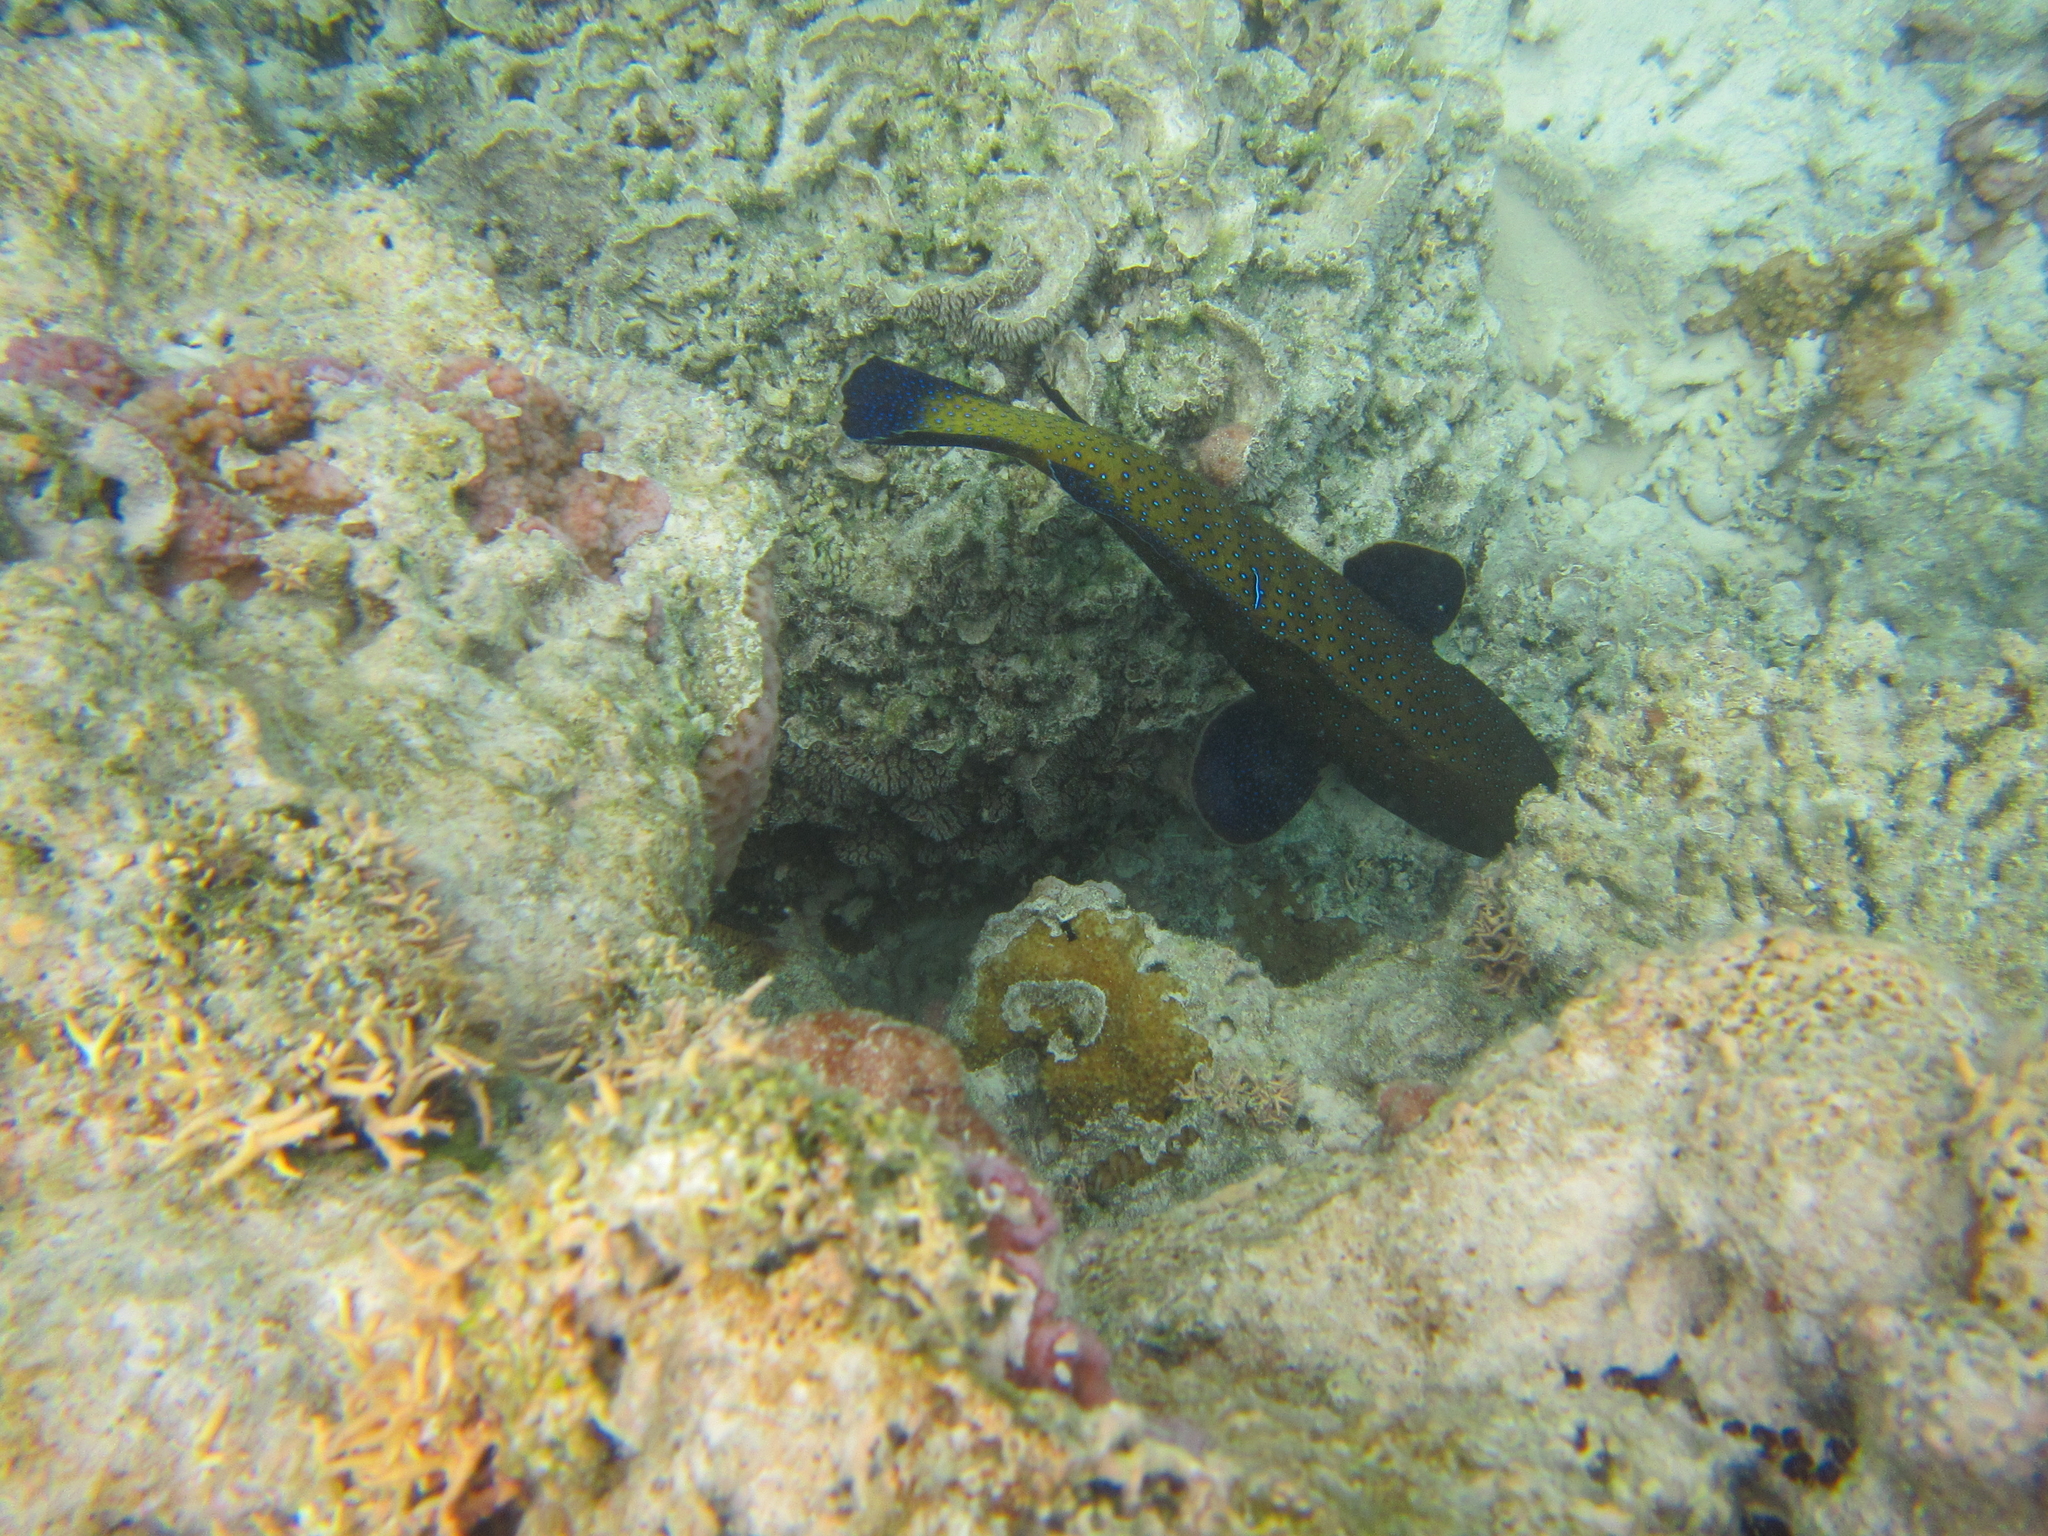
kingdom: Animalia
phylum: Chordata
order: Perciformes
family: Serranidae
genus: Cephalopholis
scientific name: Cephalopholis argus
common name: Peacock grouper
